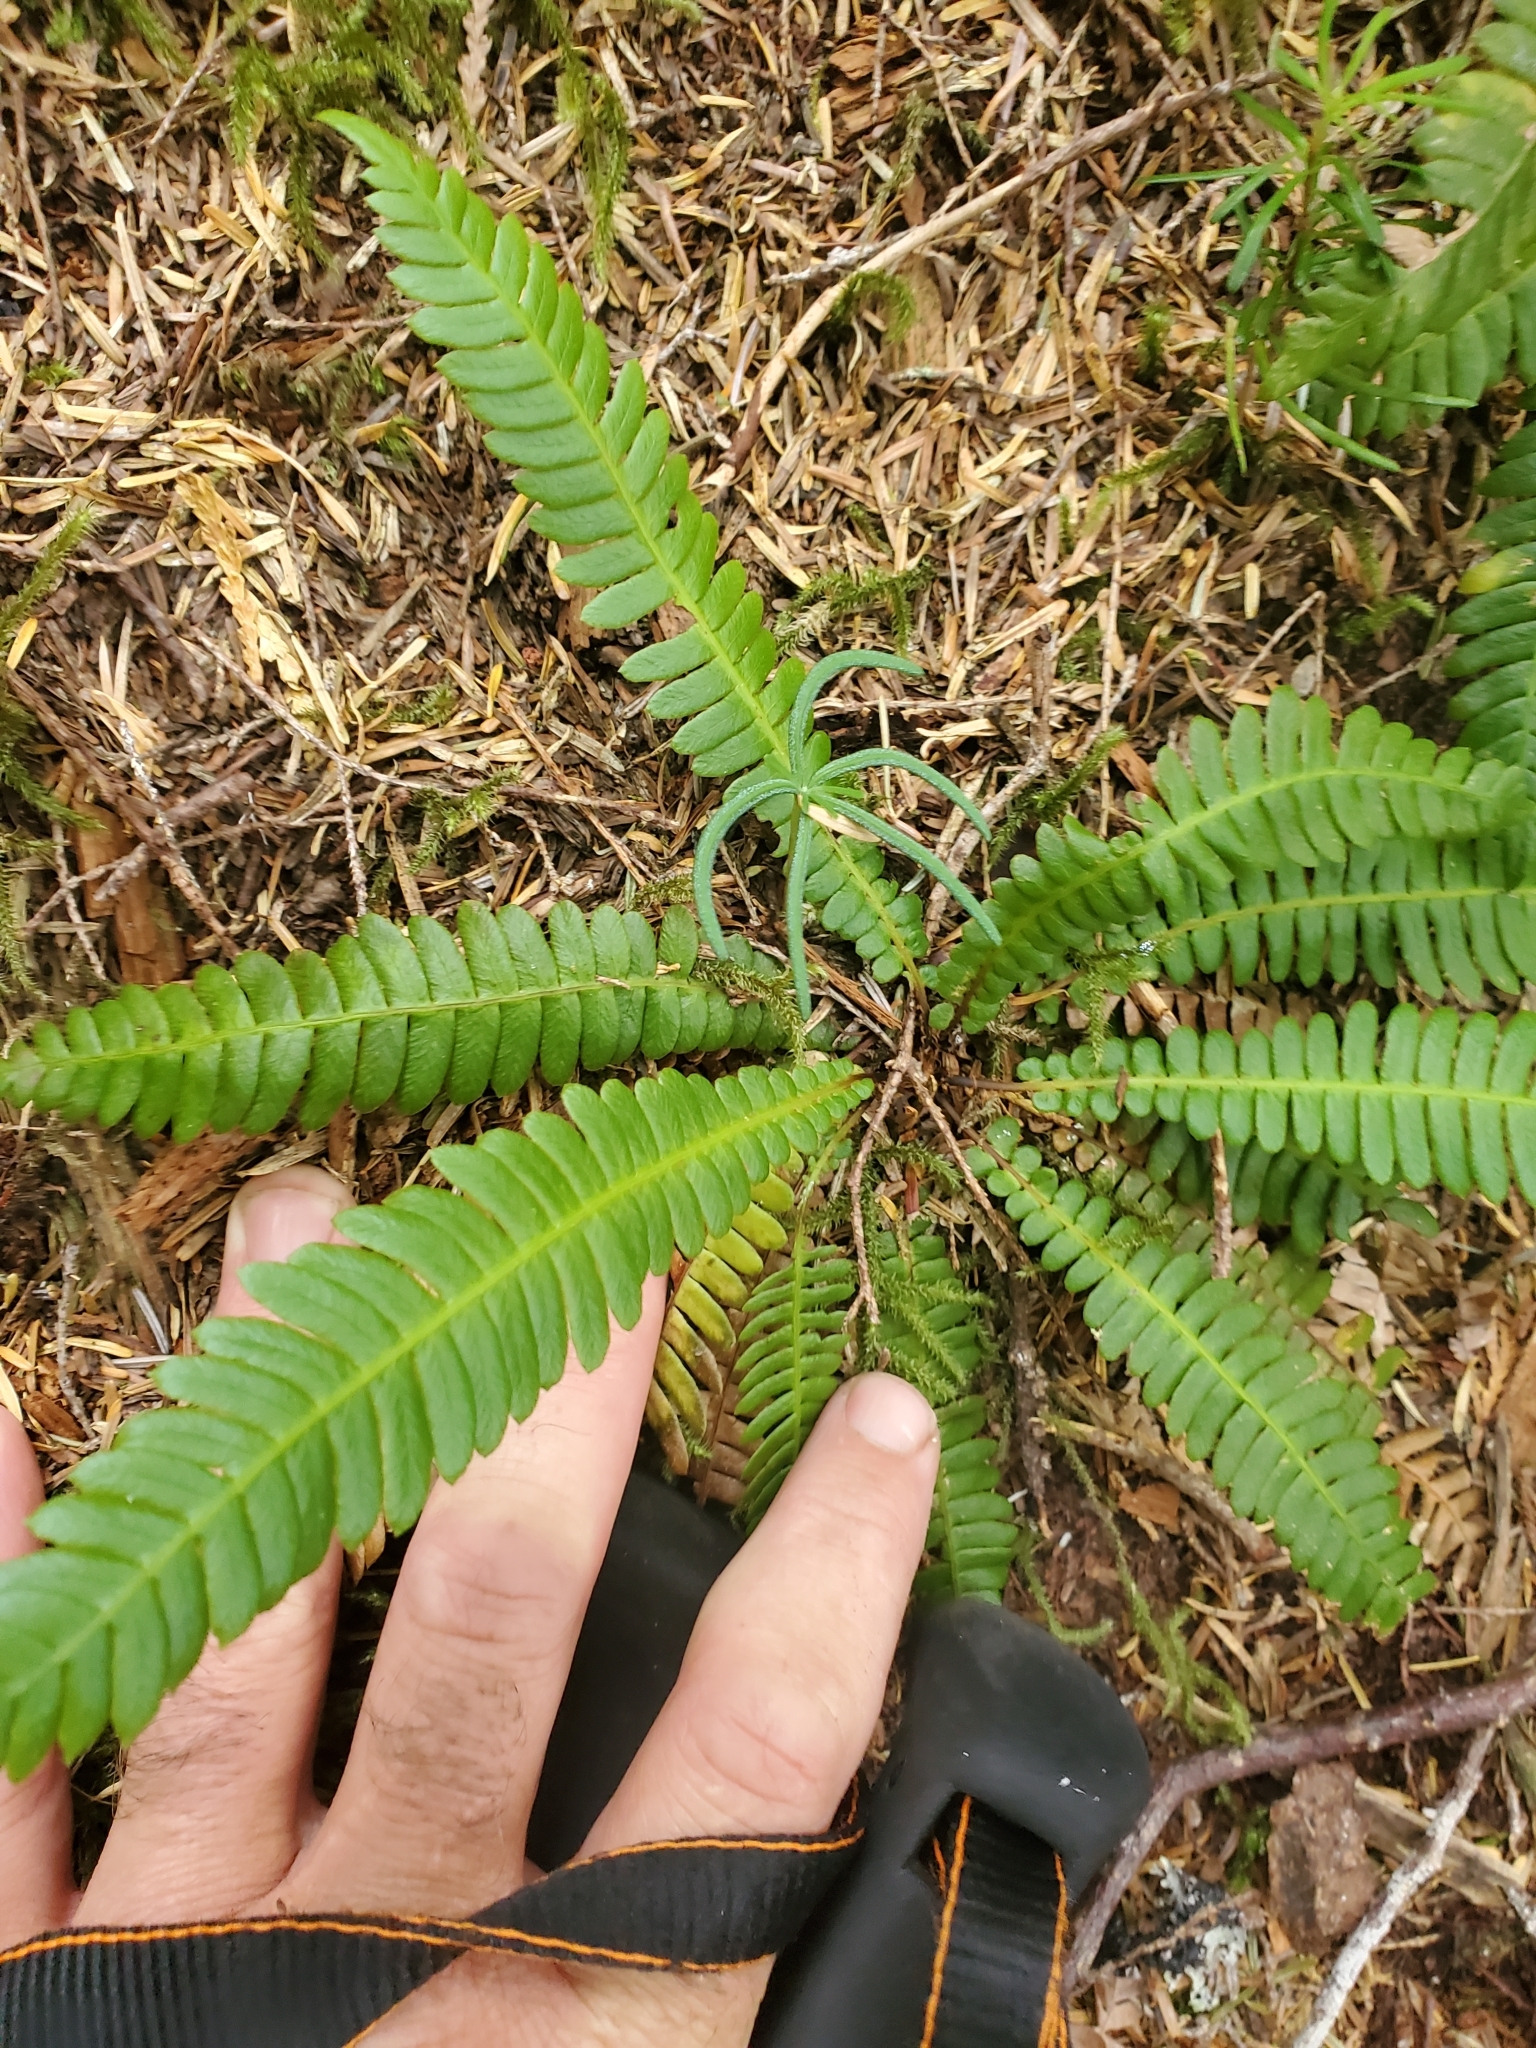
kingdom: Plantae
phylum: Tracheophyta
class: Polypodiopsida
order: Polypodiales
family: Blechnaceae
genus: Struthiopteris
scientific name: Struthiopteris spicant
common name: Deer fern
